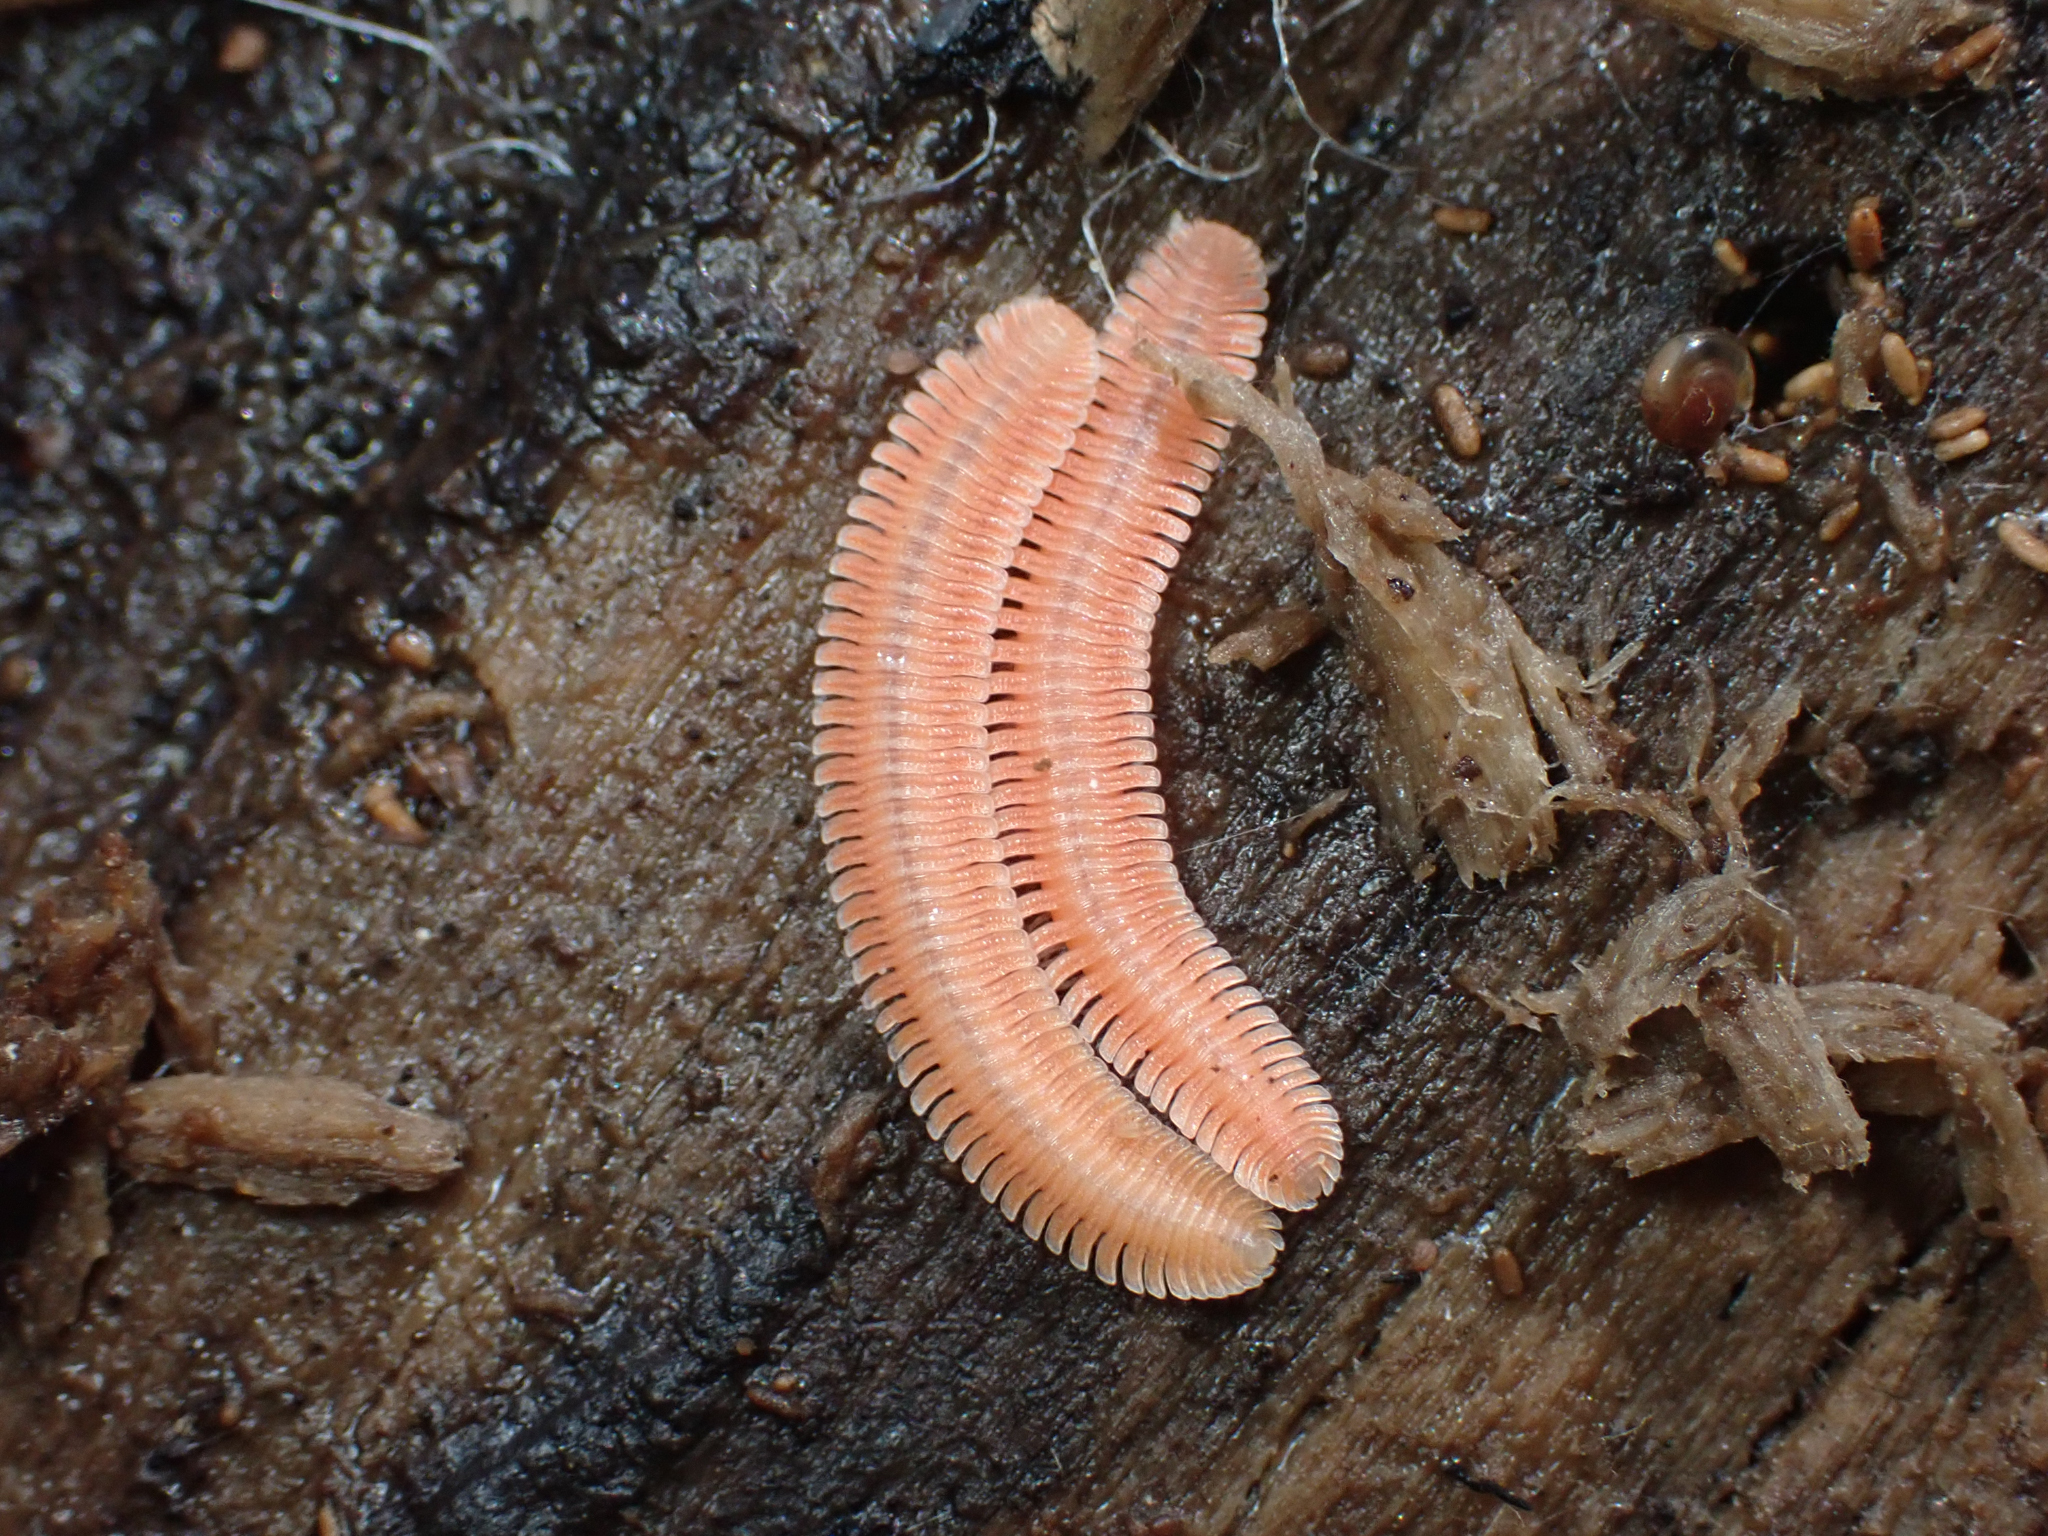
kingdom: Animalia
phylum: Arthropoda
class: Diplopoda
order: Platydesmida
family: Andrognathidae
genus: Brachycybe
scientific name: Brachycybe rosea
